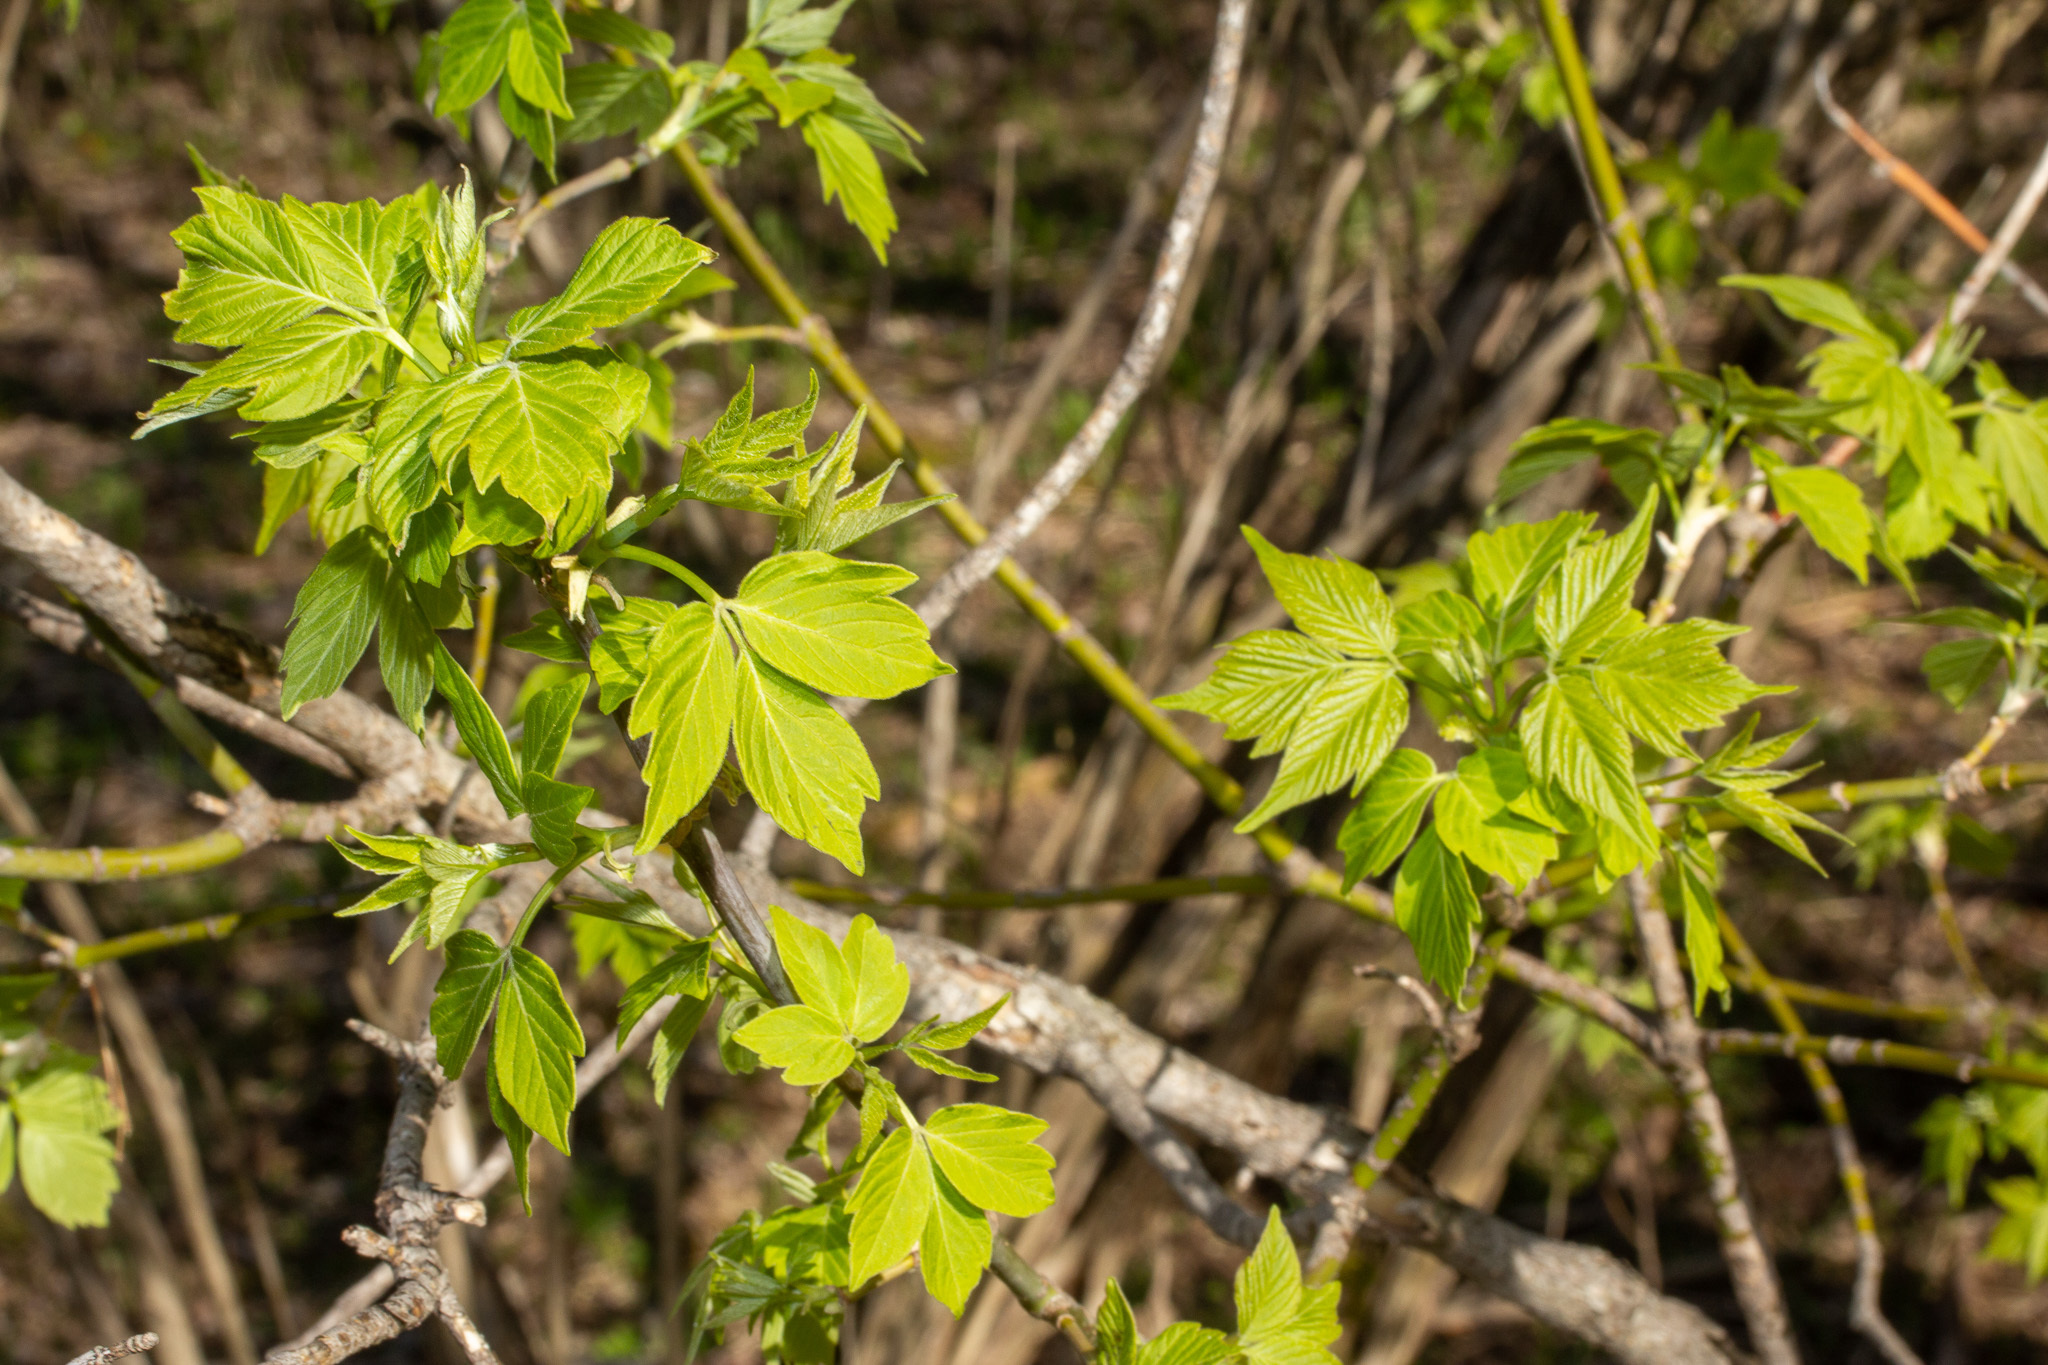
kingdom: Plantae
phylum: Tracheophyta
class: Magnoliopsida
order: Sapindales
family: Sapindaceae
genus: Acer
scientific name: Acer negundo
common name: Ashleaf maple
